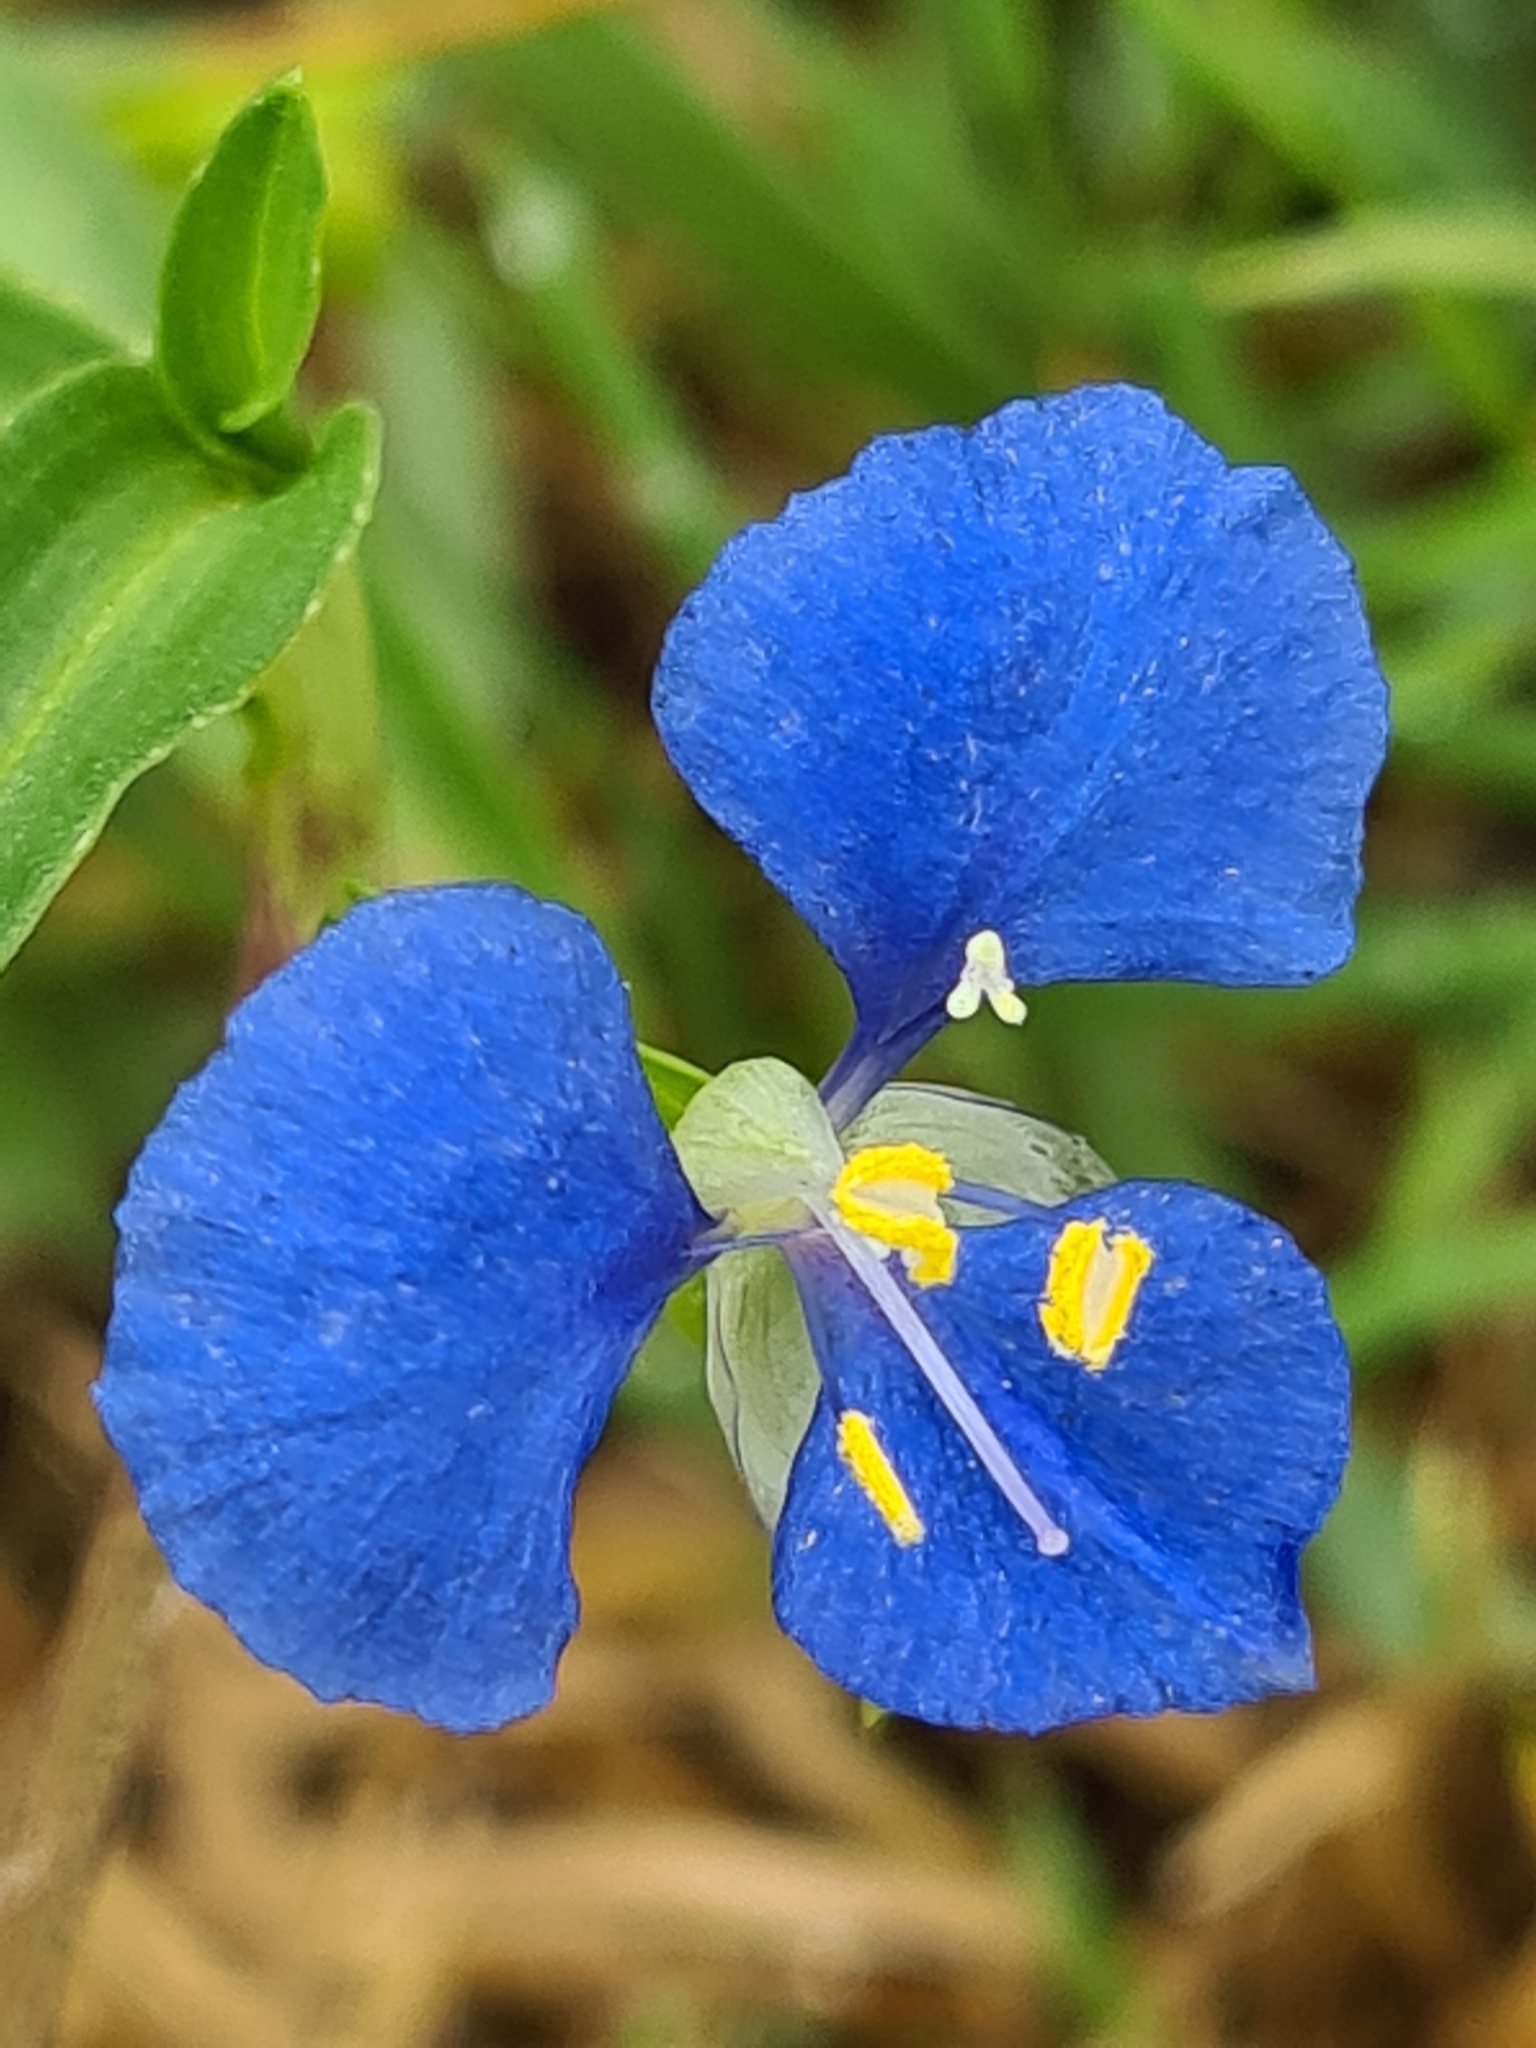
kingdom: Plantae
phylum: Tracheophyta
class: Liliopsida
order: Commelinales
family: Commelinaceae
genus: Commelina
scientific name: Commelina cyanea
